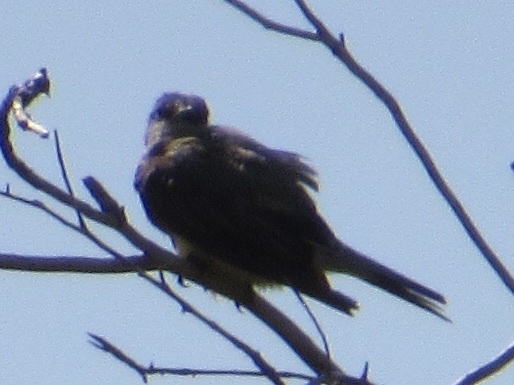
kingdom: Animalia
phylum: Chordata
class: Aves
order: Passeriformes
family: Tyrannidae
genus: Tyrannus
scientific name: Tyrannus verticalis
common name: Western kingbird
